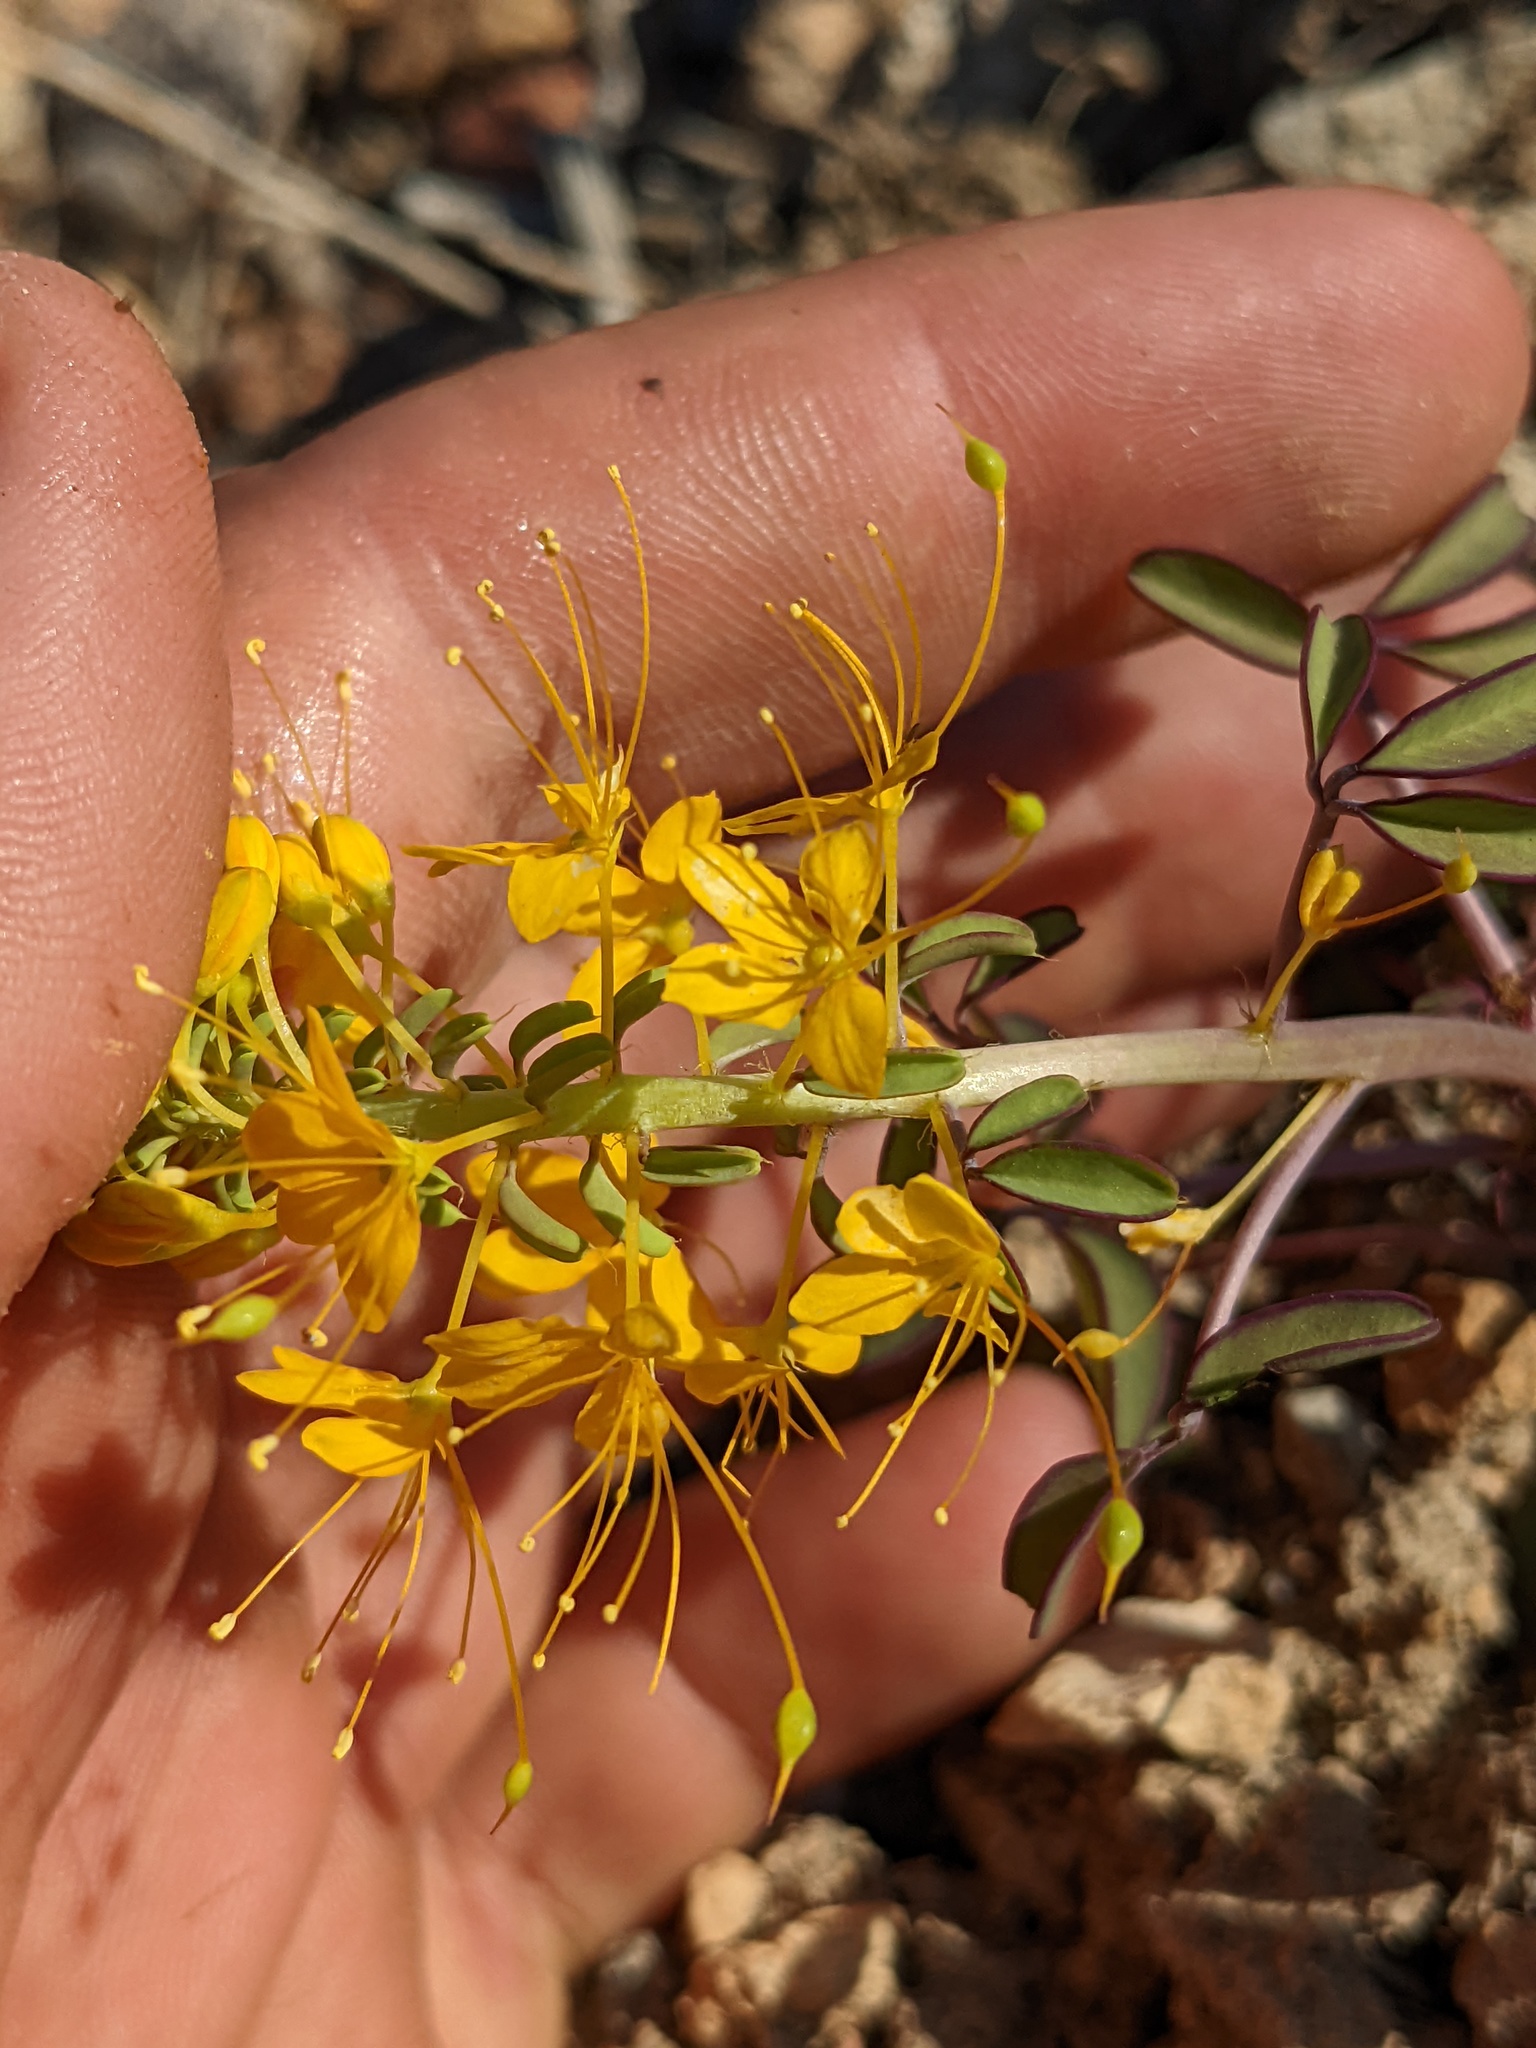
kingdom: Plantae
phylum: Tracheophyta
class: Magnoliopsida
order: Brassicales
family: Cleomaceae
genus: Cleomella
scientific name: Cleomella hillmanii
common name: Desert stinkweed
